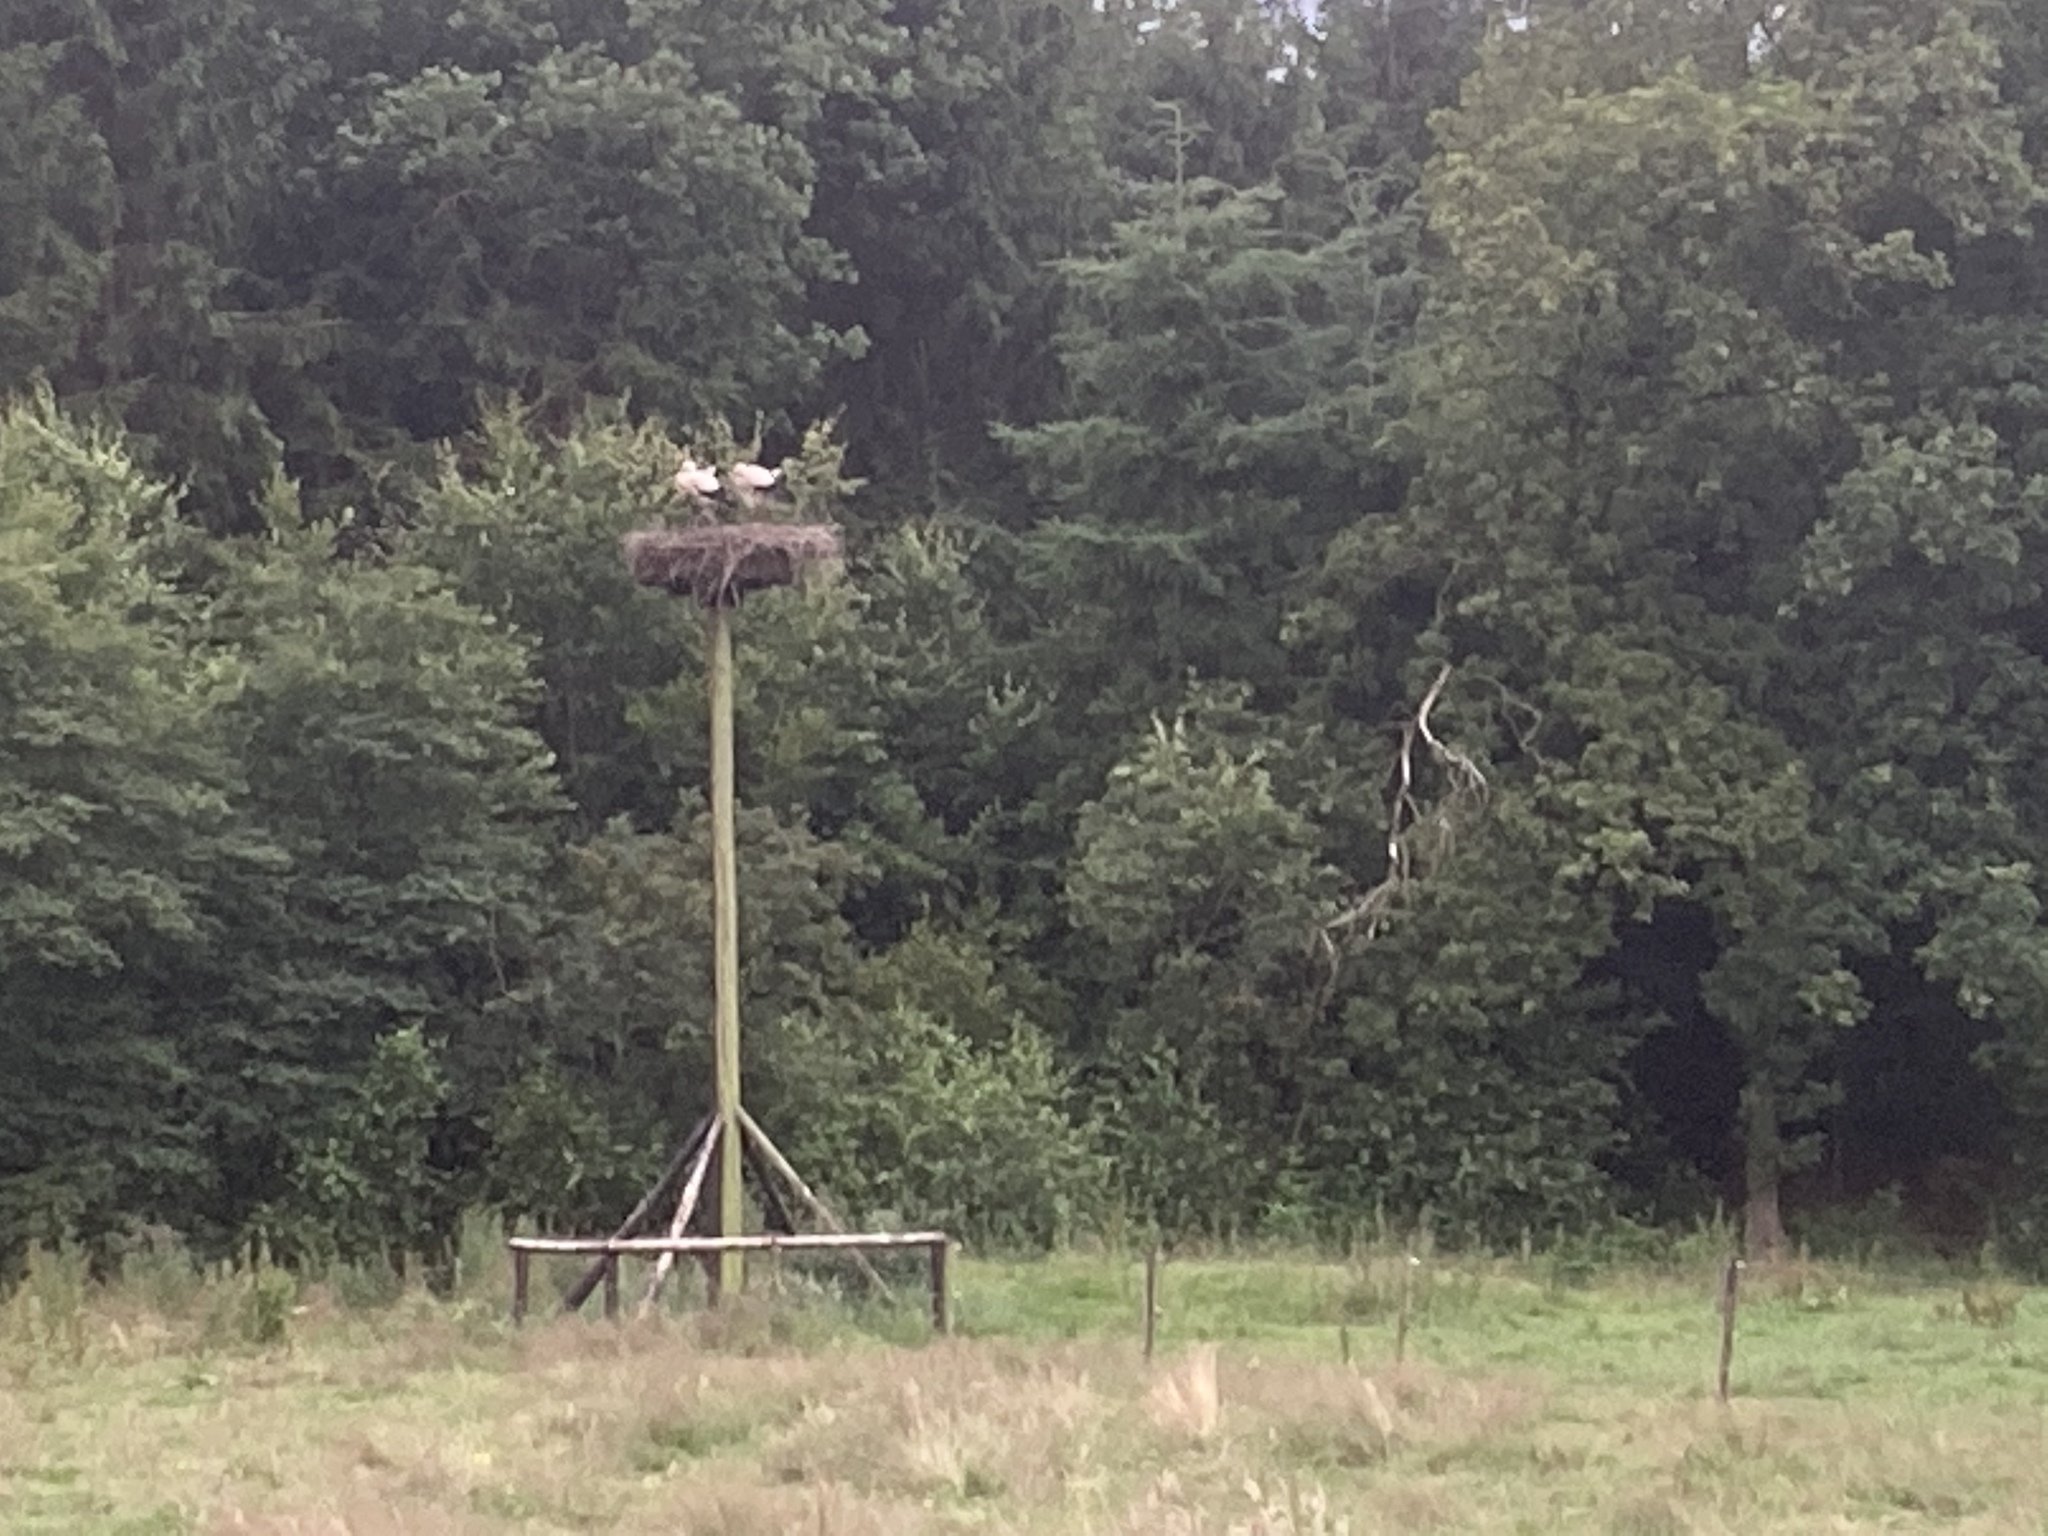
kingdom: Animalia
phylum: Chordata
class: Aves
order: Ciconiiformes
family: Ciconiidae
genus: Ciconia
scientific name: Ciconia ciconia
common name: White stork
